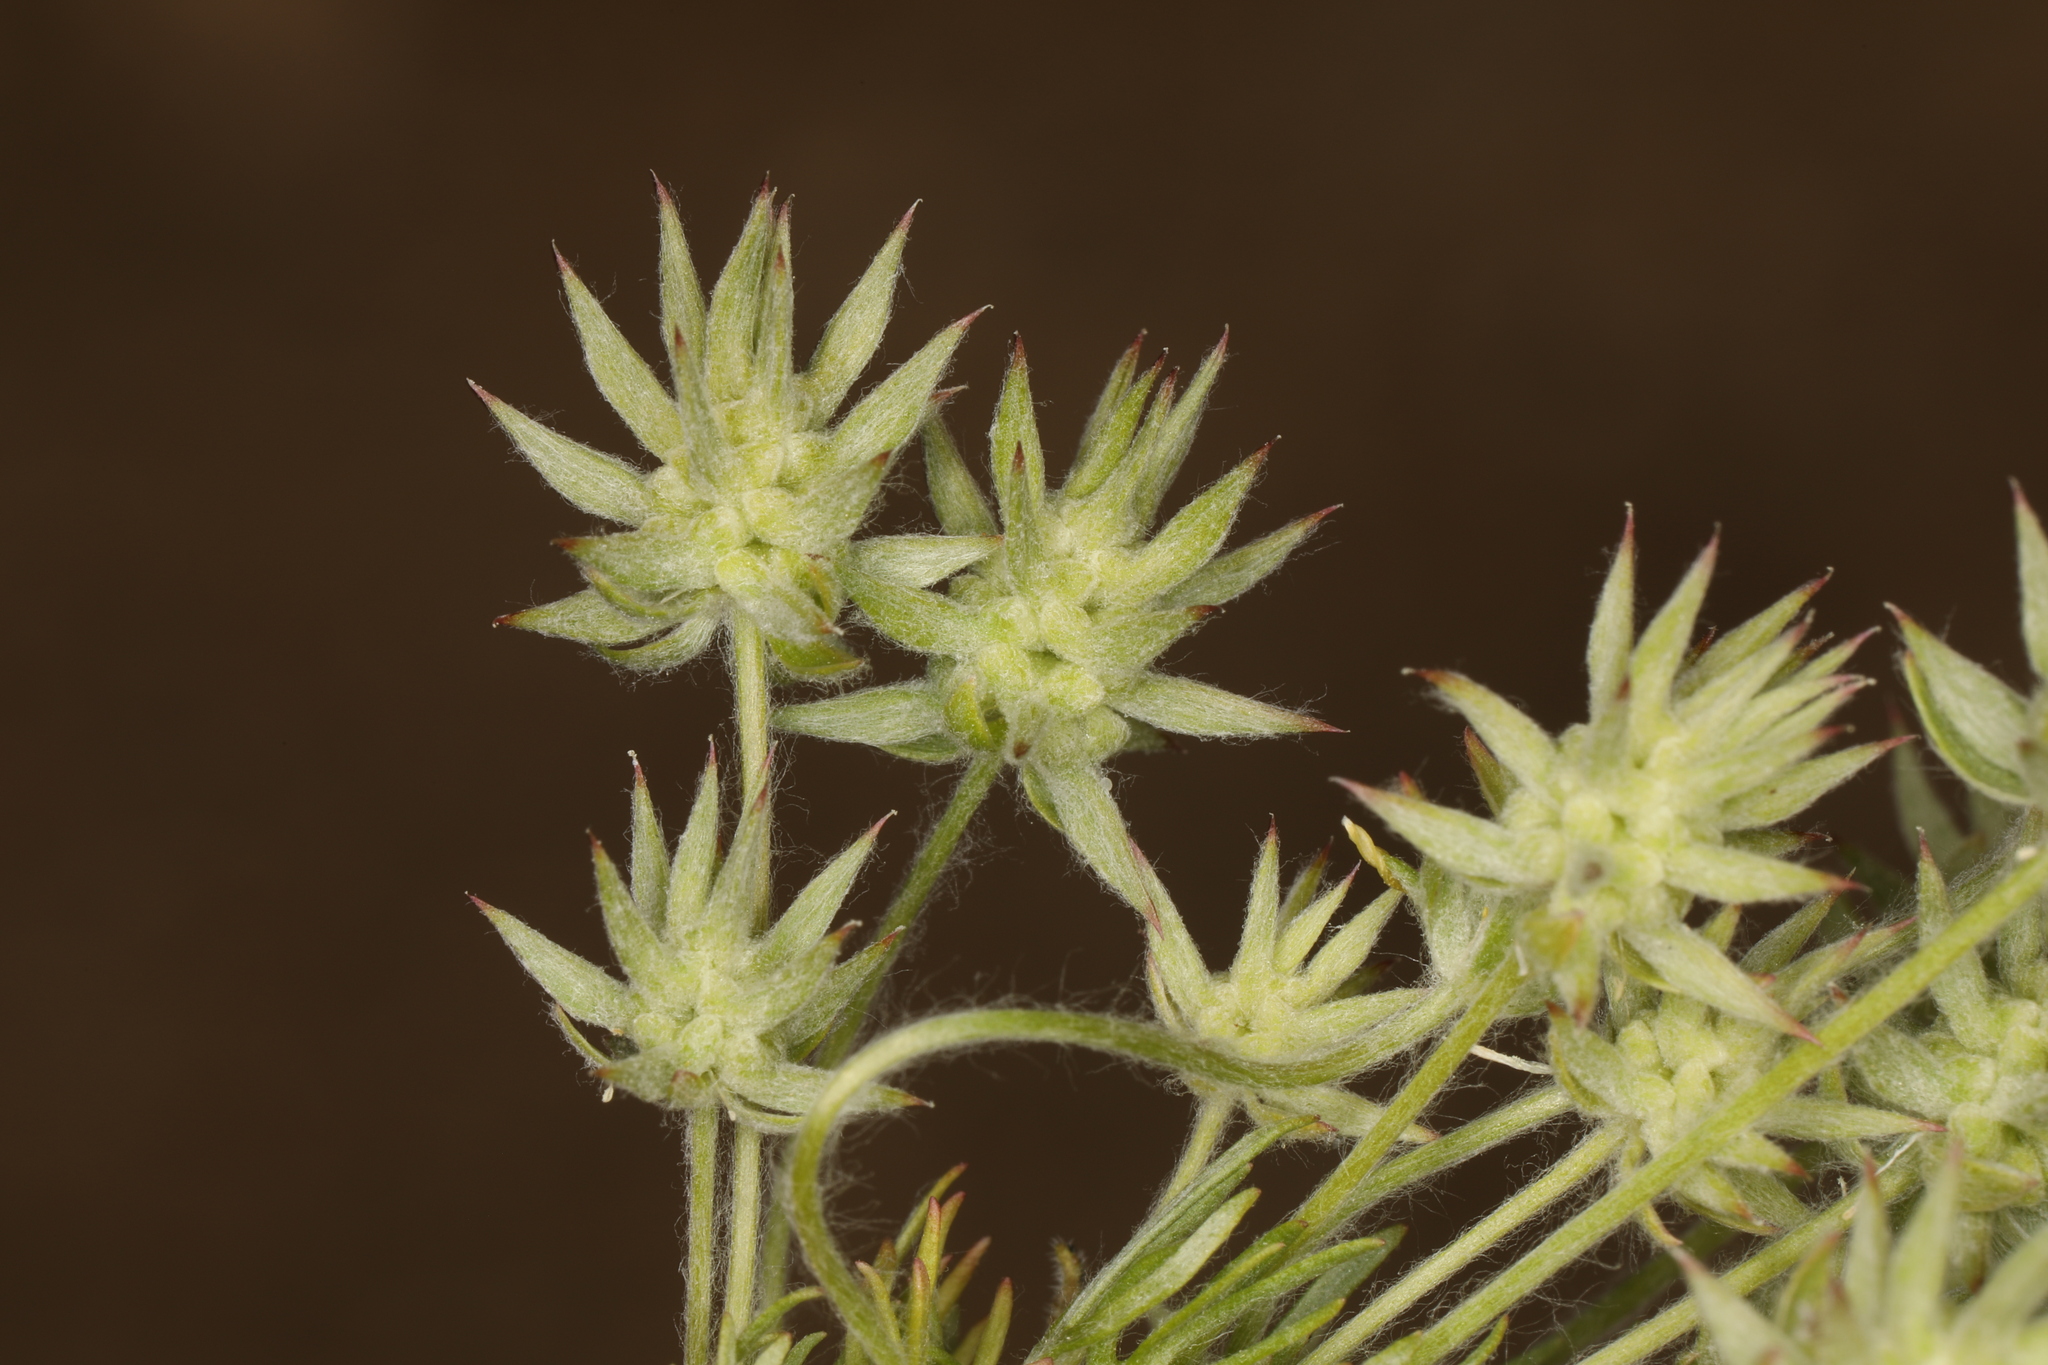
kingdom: Plantae
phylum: Tracheophyta
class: Magnoliopsida
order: Ranunculales
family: Ranunculaceae
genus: Ceratocephala
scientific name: Ceratocephala orthoceras
